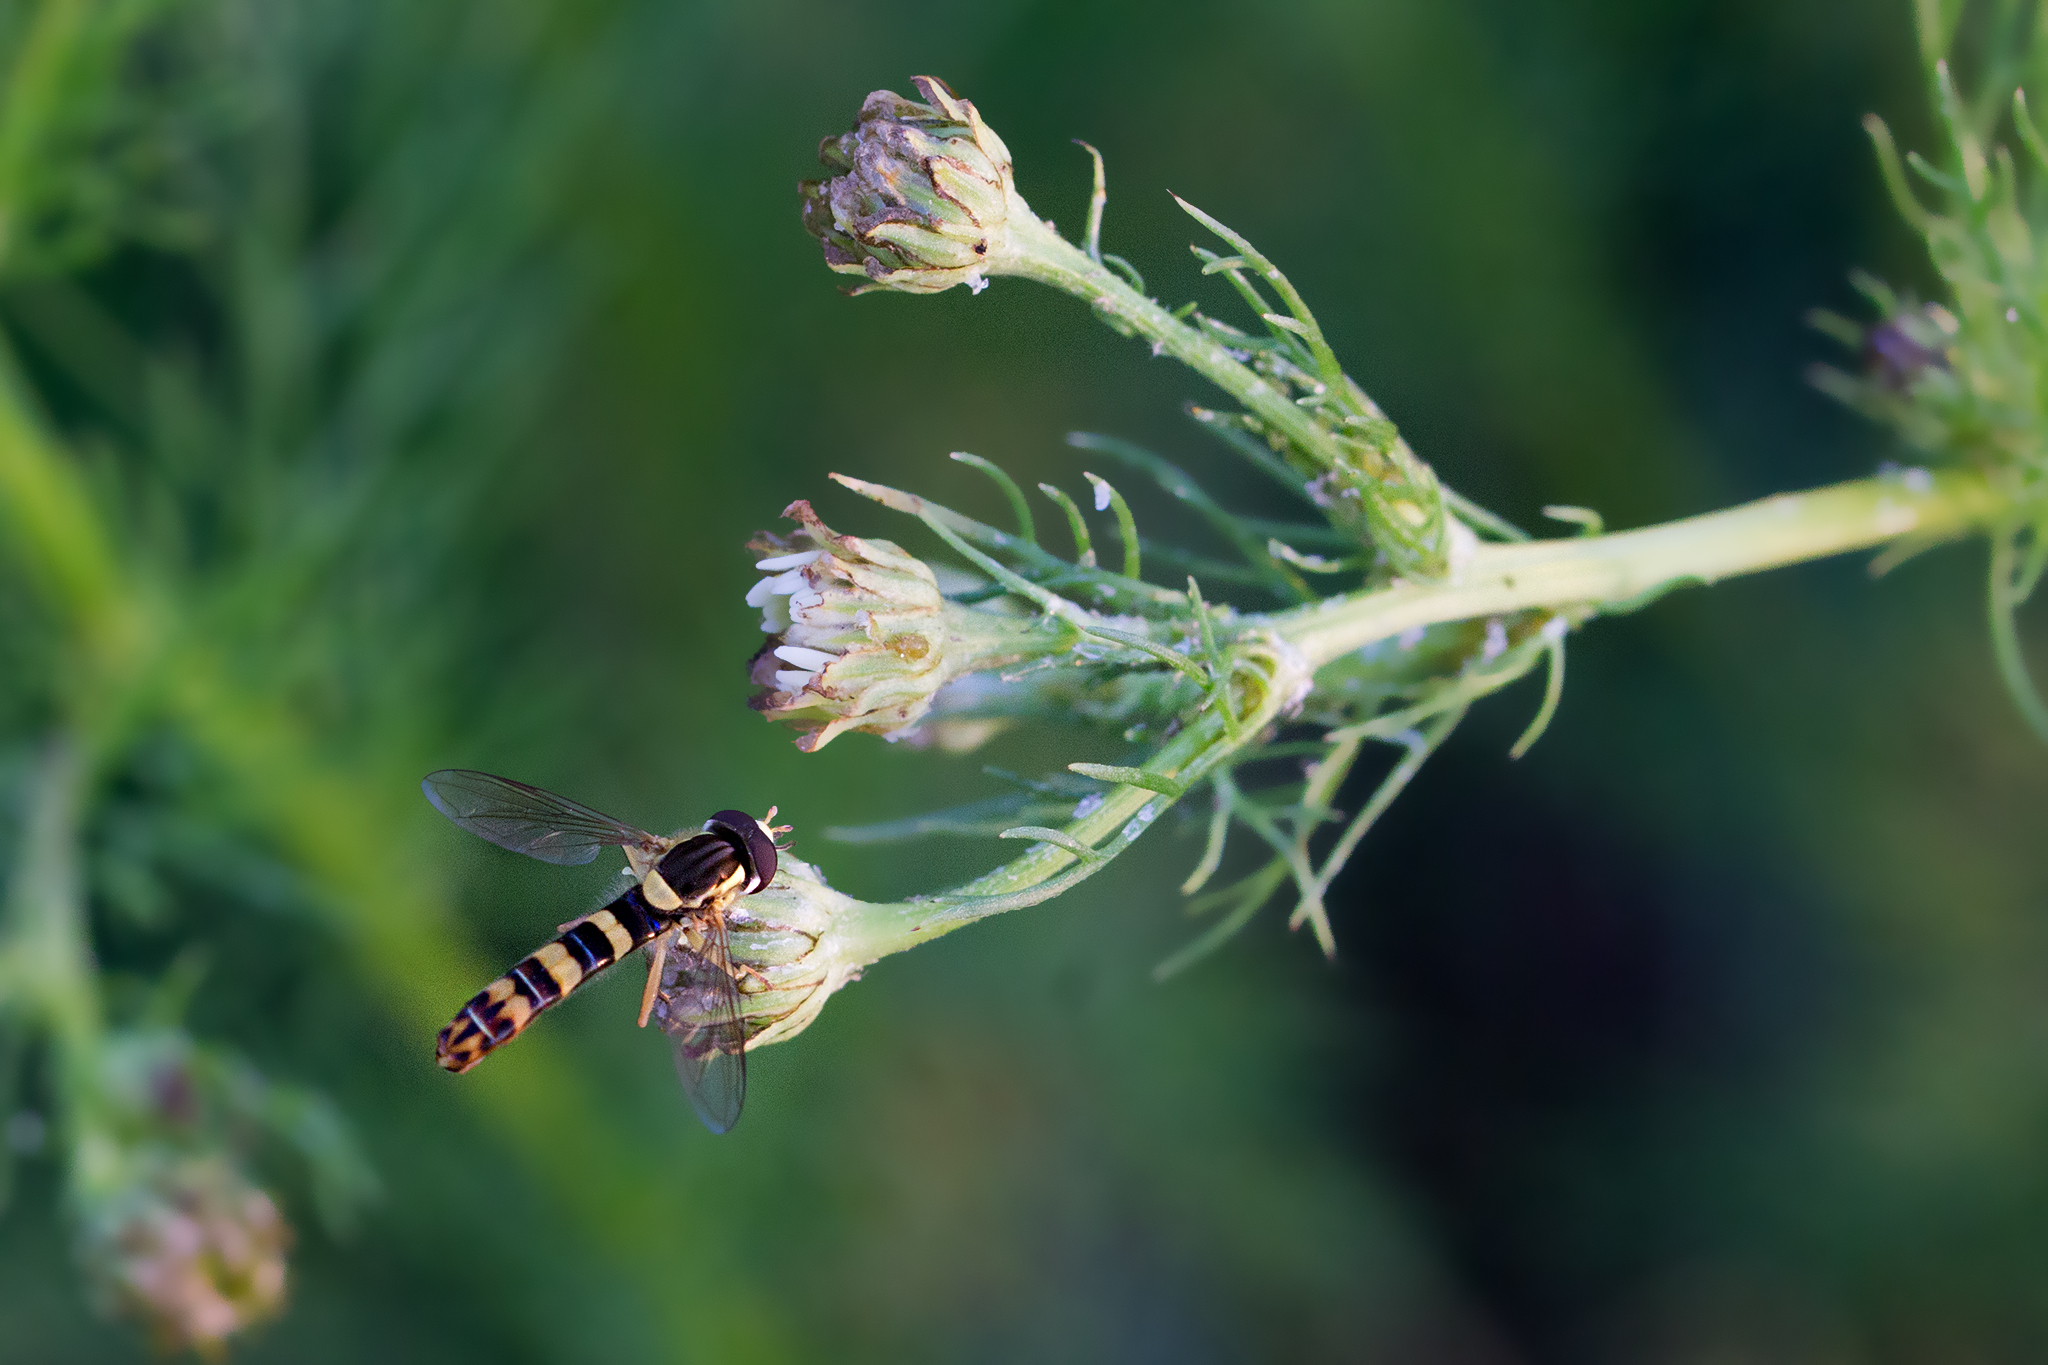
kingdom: Animalia
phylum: Arthropoda
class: Insecta
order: Diptera
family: Syrphidae
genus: Sphaerophoria
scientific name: Sphaerophoria scripta
